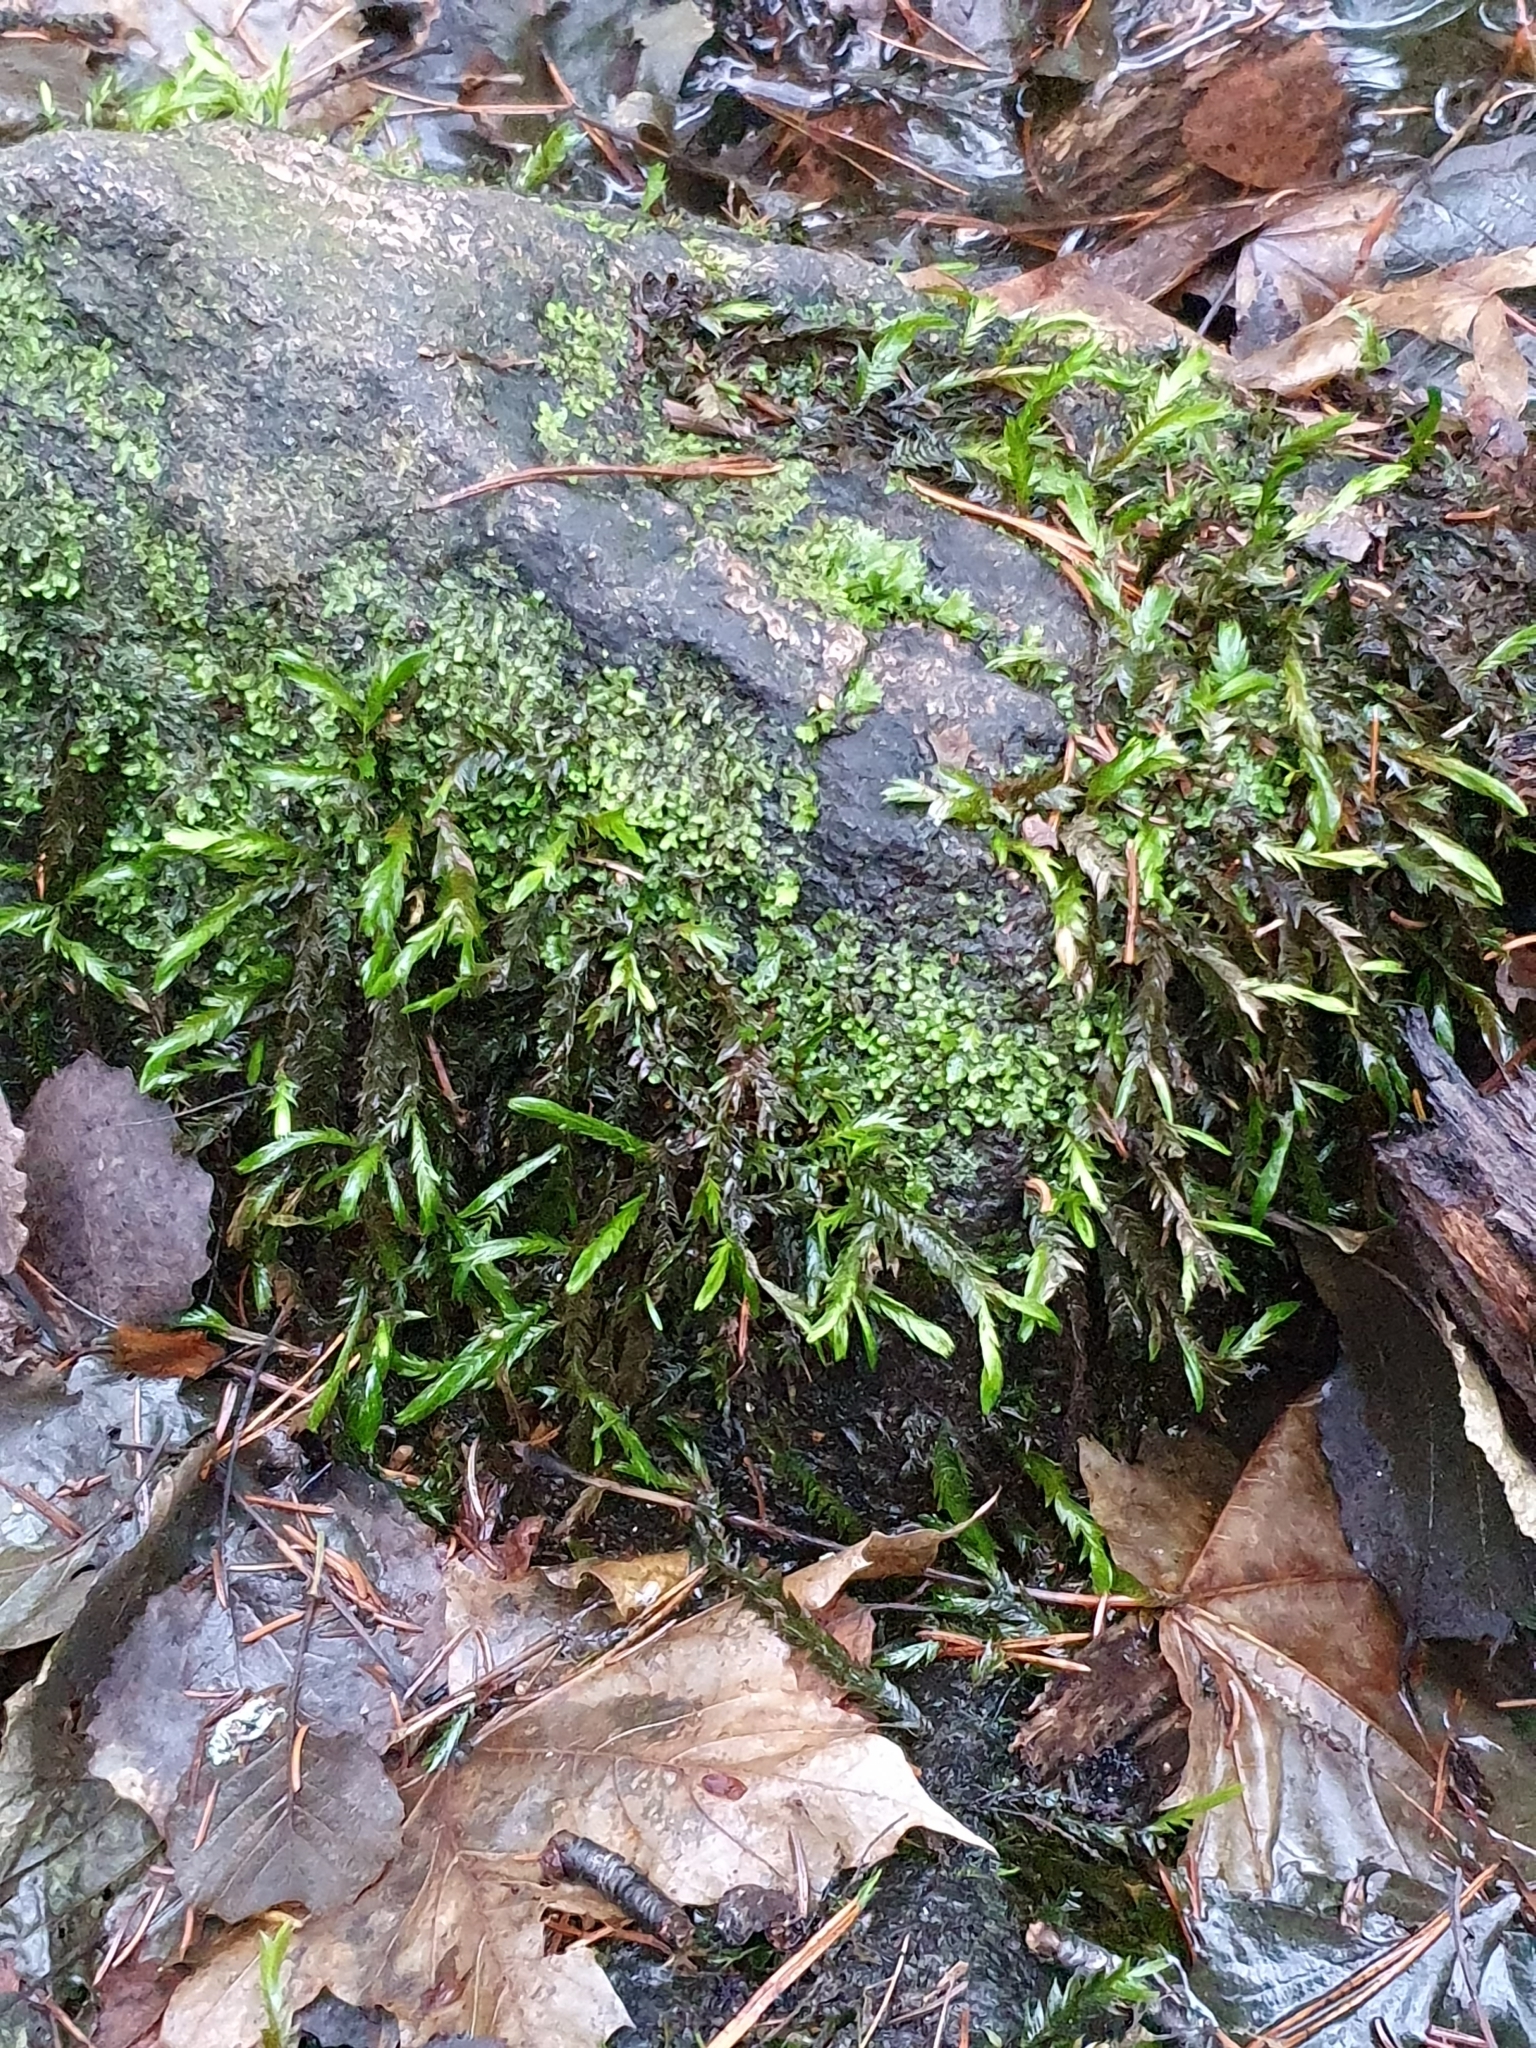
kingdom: Plantae
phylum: Bryophyta
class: Bryopsida
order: Hypnales
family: Fontinalaceae
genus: Fontinalis
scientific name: Fontinalis antipyretica
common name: Greater water-moss
